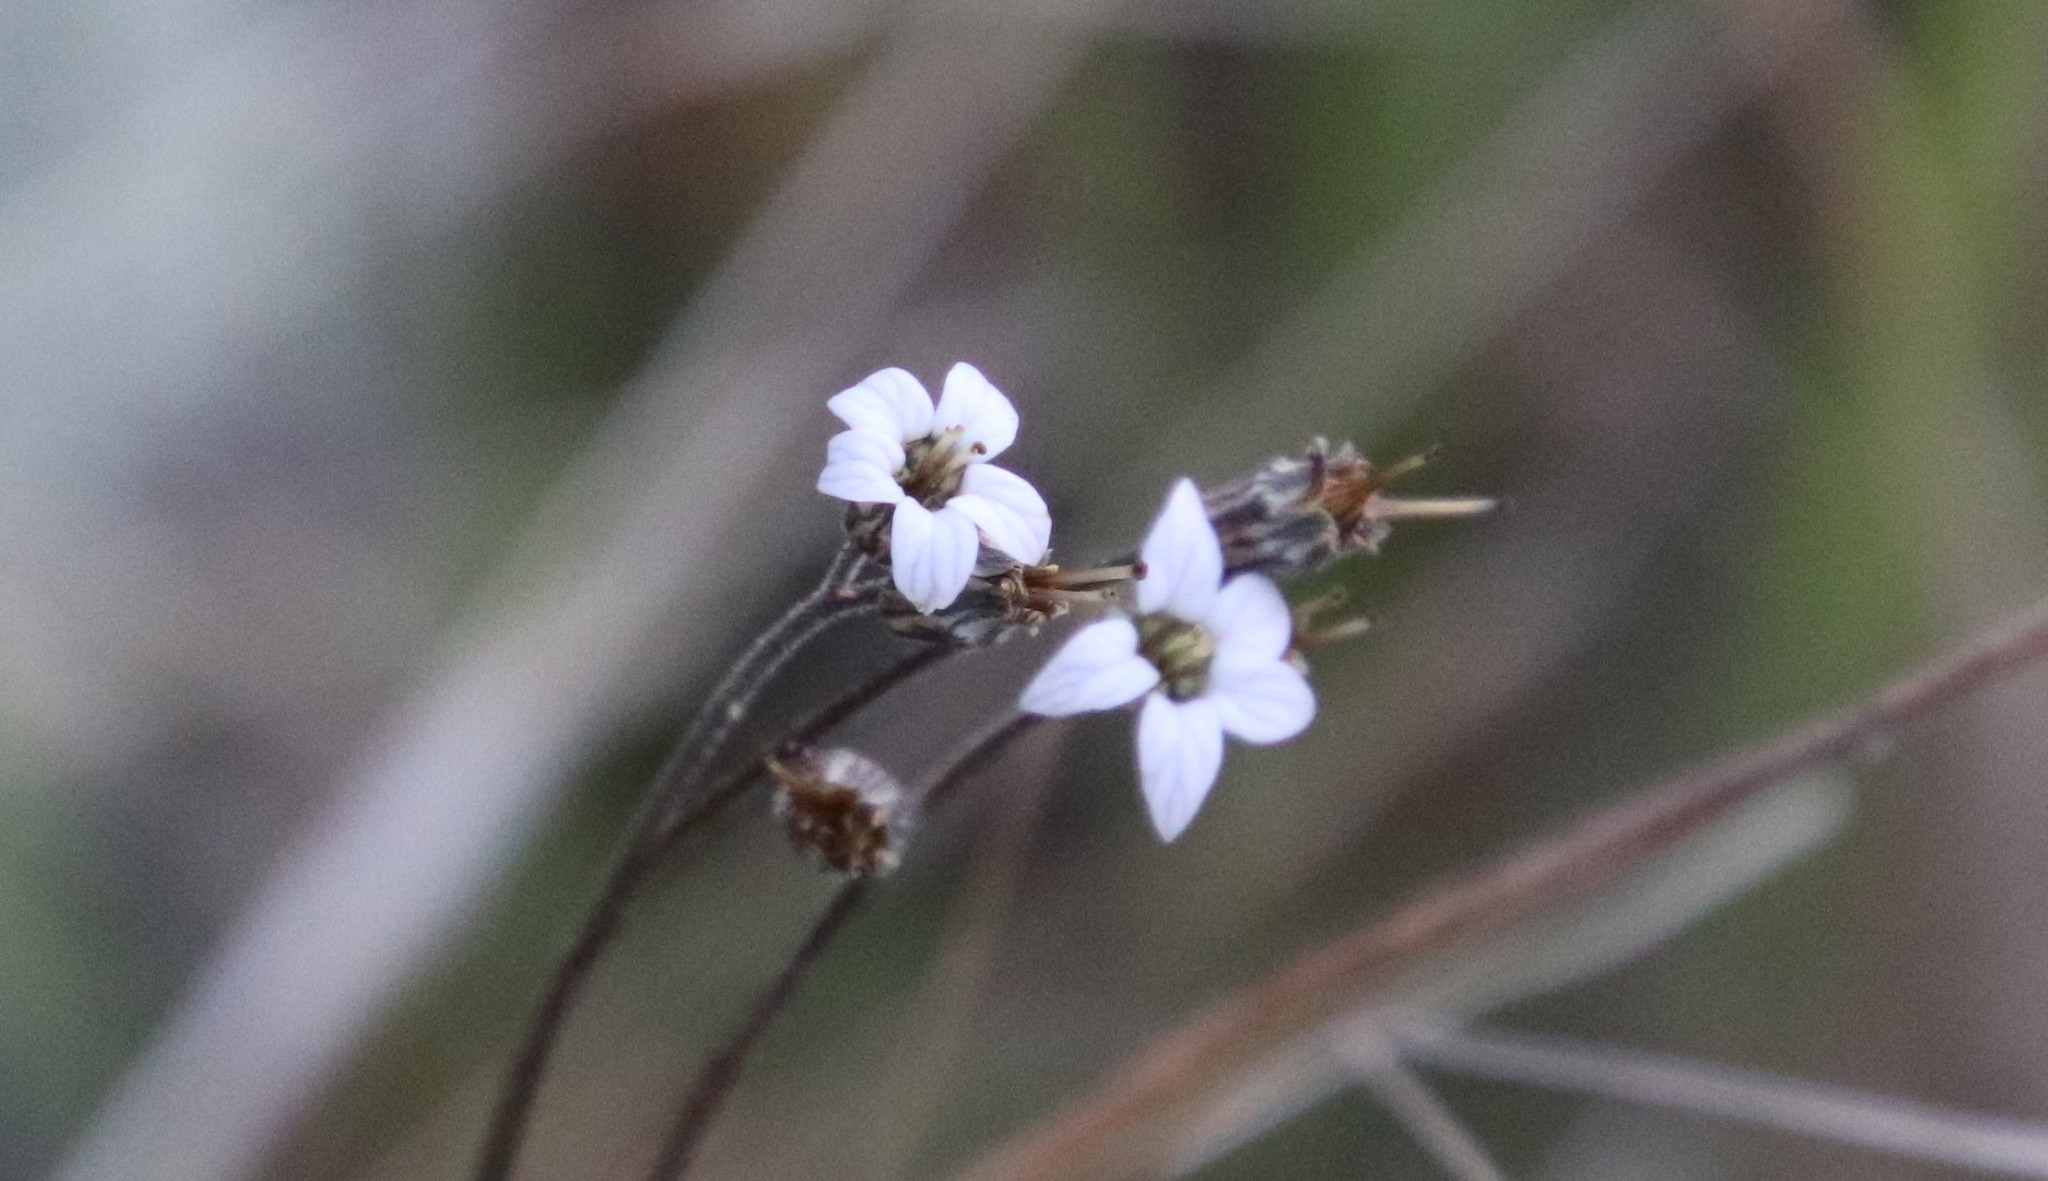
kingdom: Plantae
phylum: Tracheophyta
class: Magnoliopsida
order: Saxifragales
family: Saxifragaceae
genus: Jepsonia
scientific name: Jepsonia parryi
